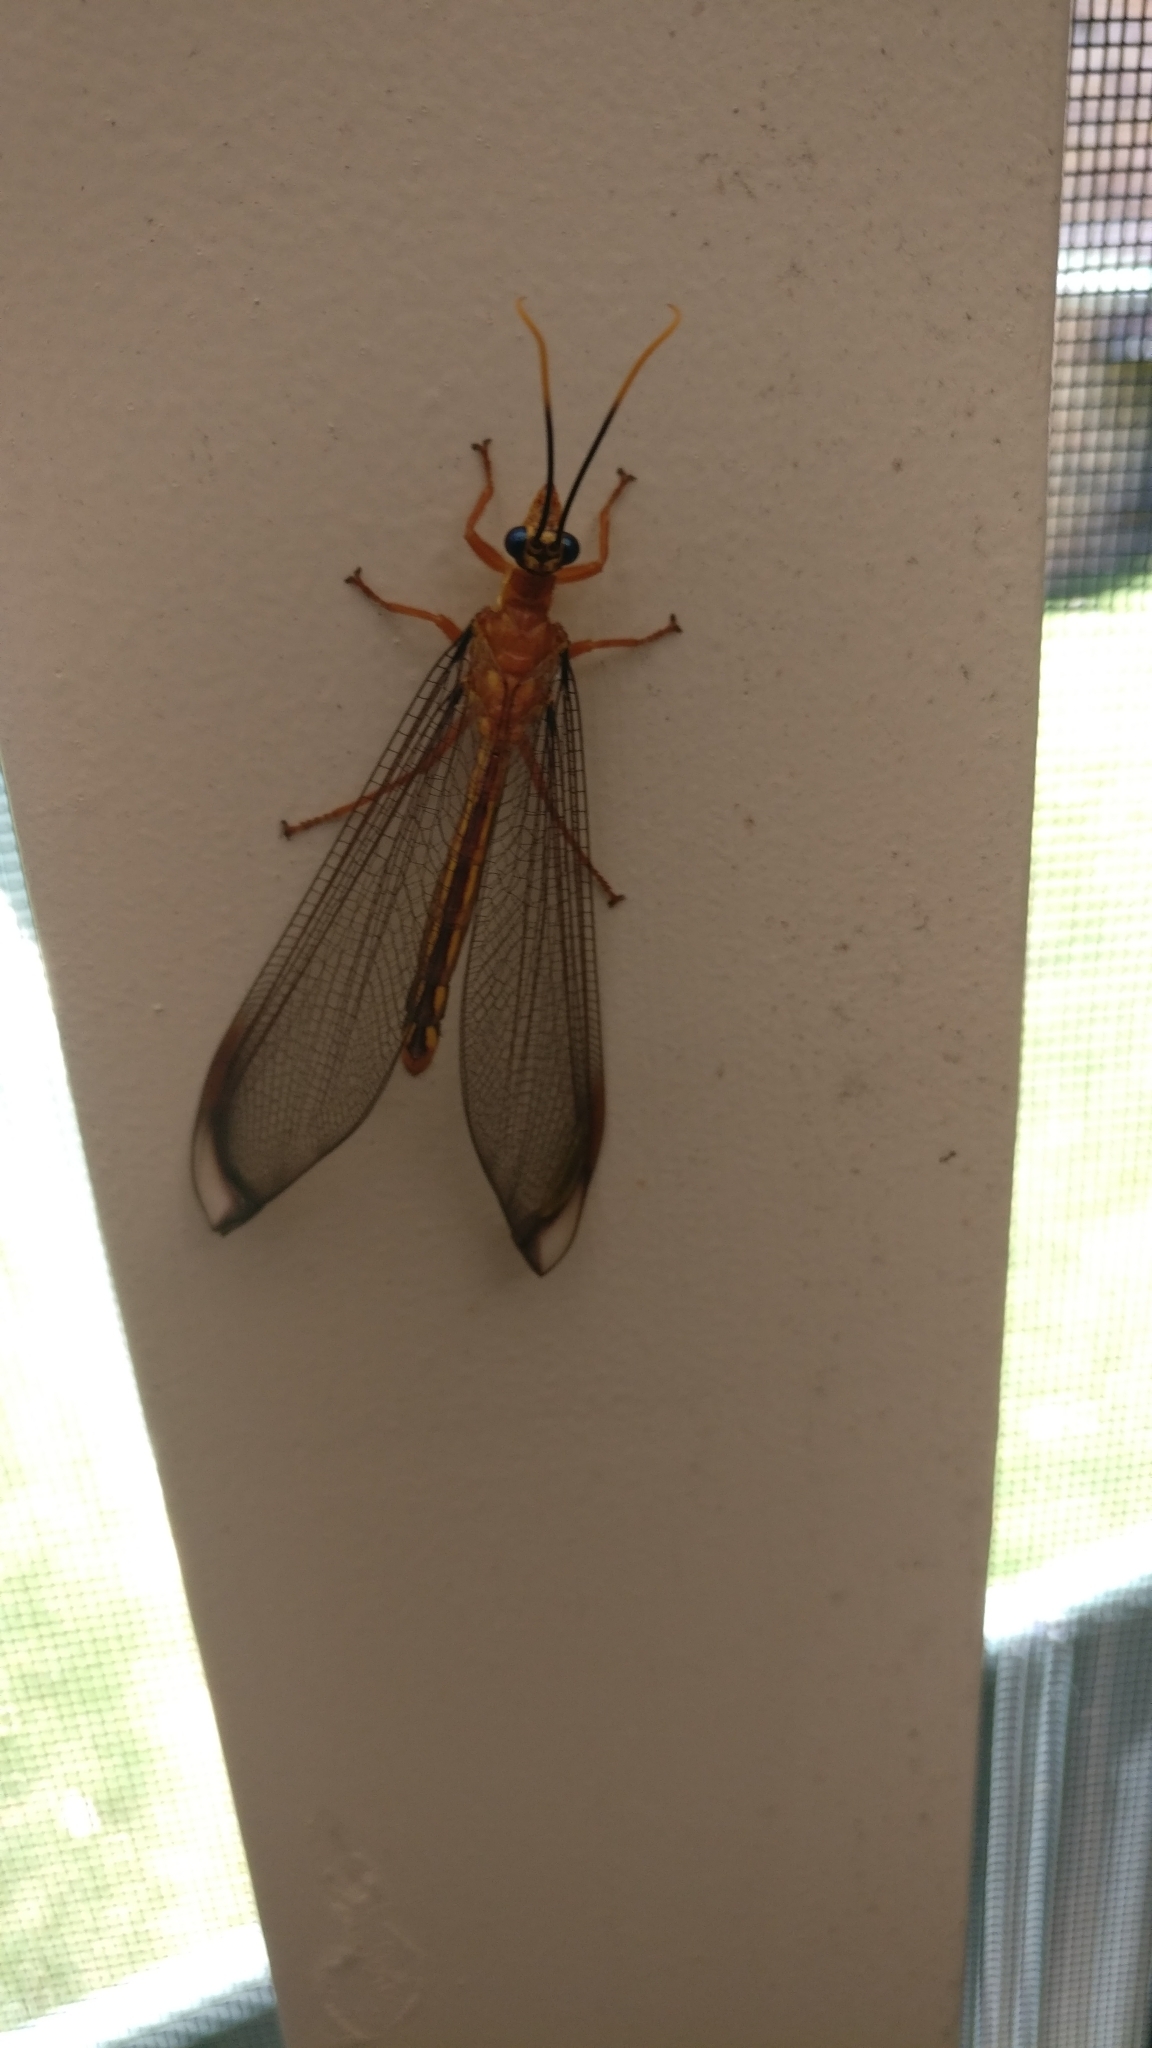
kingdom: Animalia
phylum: Arthropoda
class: Insecta
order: Neuroptera
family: Nymphidae
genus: Nymphes
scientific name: Nymphes myrmeleonoides
